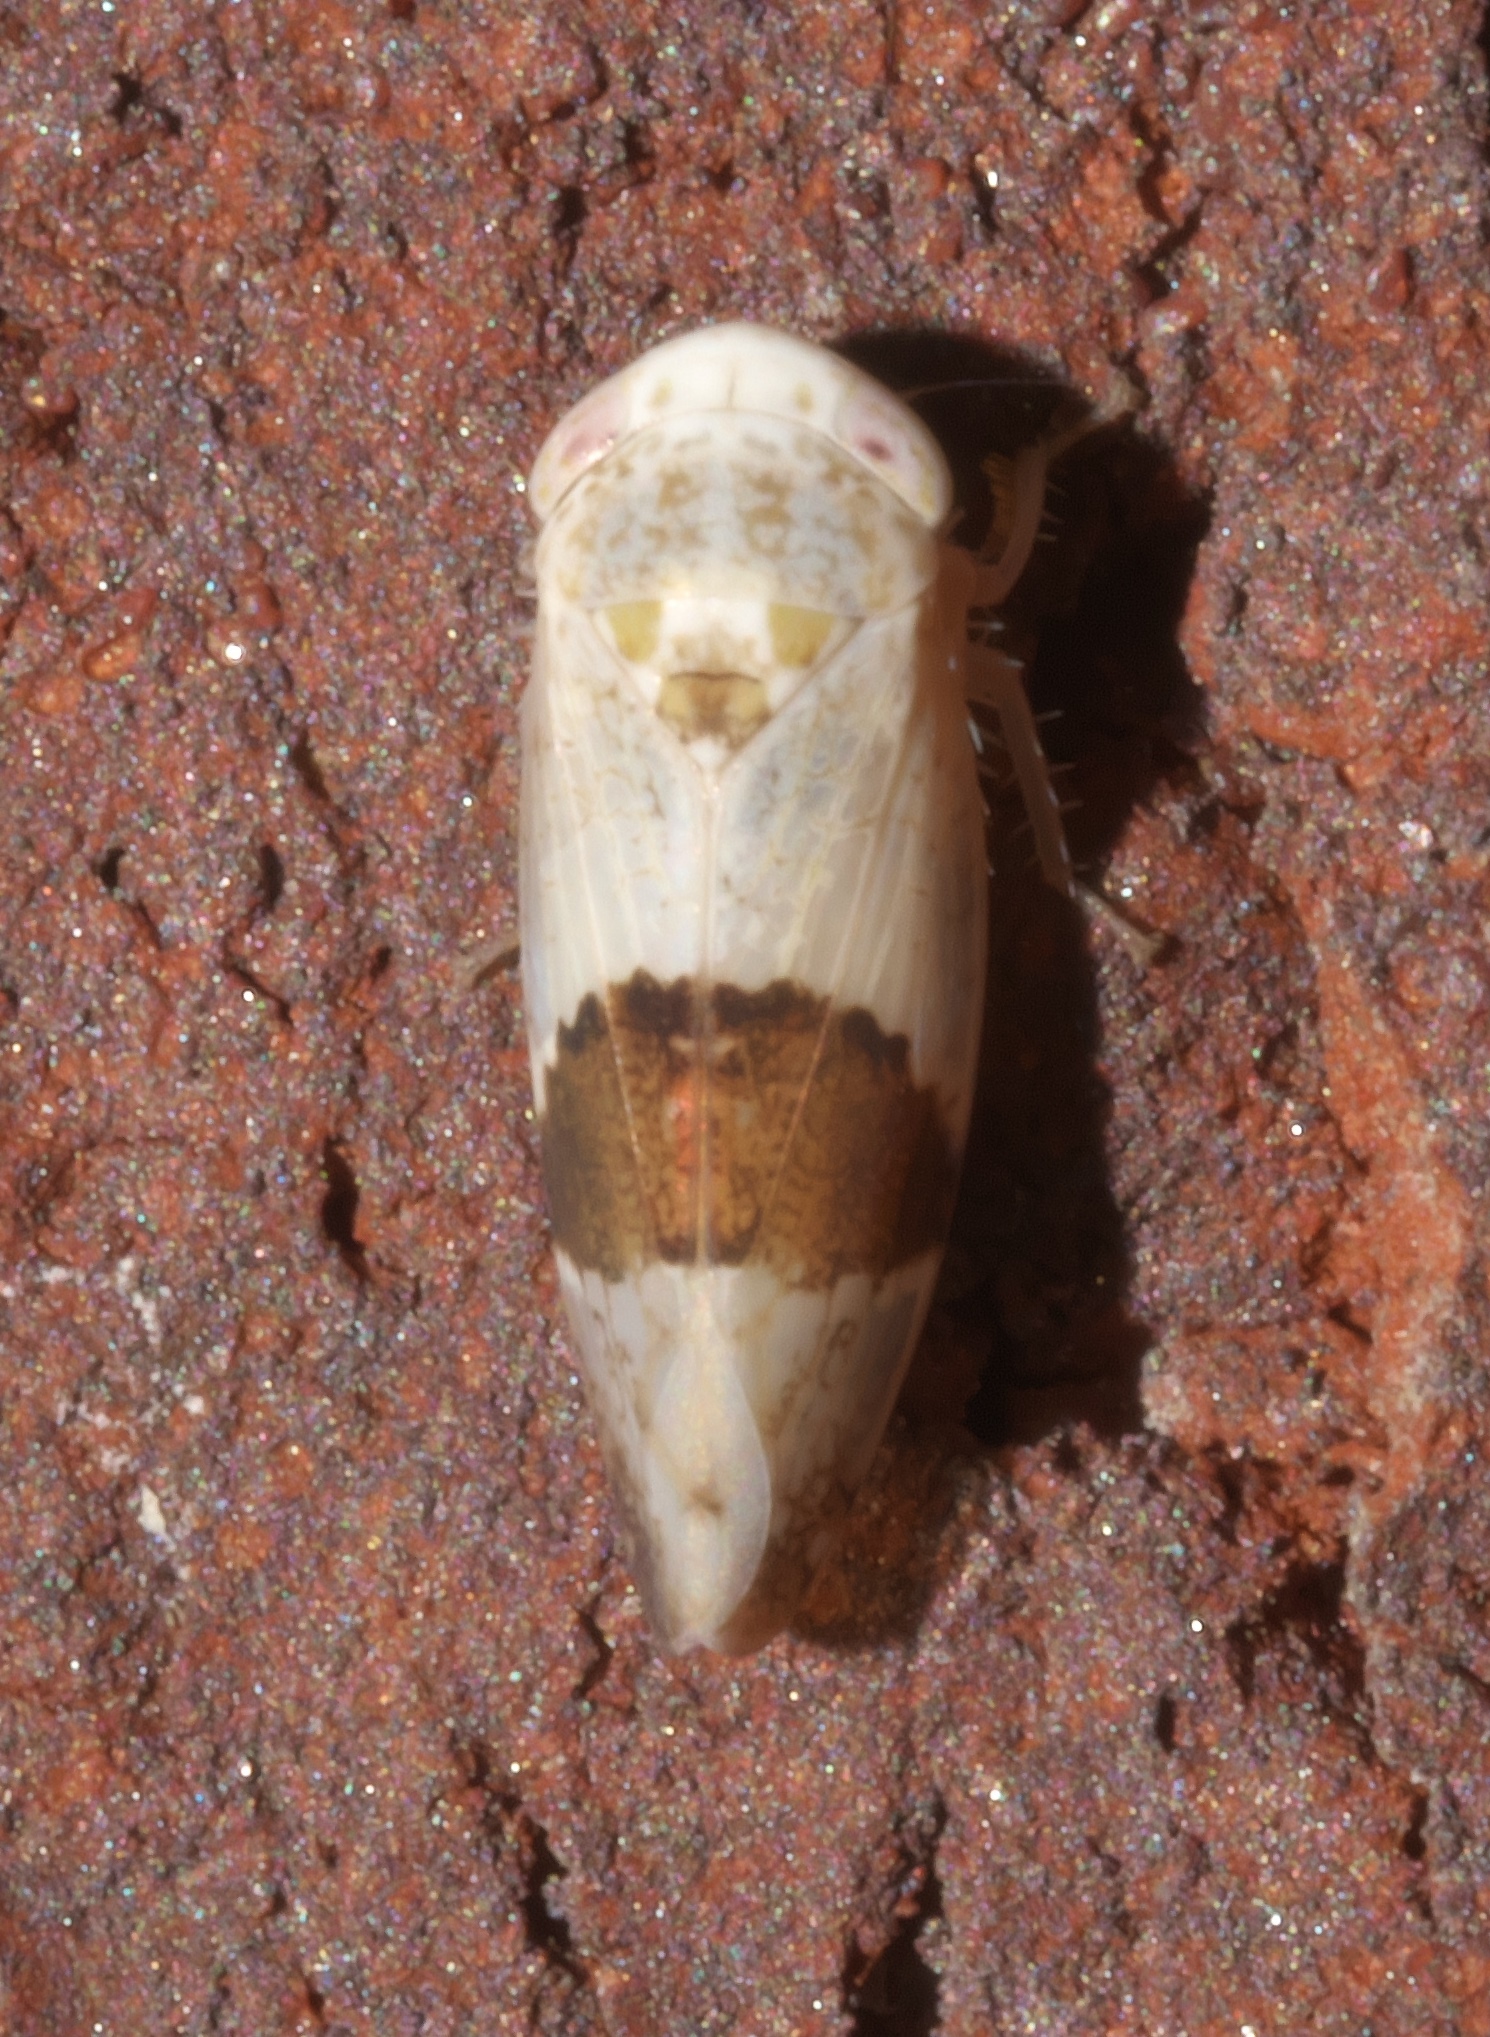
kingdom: Animalia
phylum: Arthropoda
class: Insecta
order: Hemiptera
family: Cicadellidae
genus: Norvellina
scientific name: Norvellina seminuda
